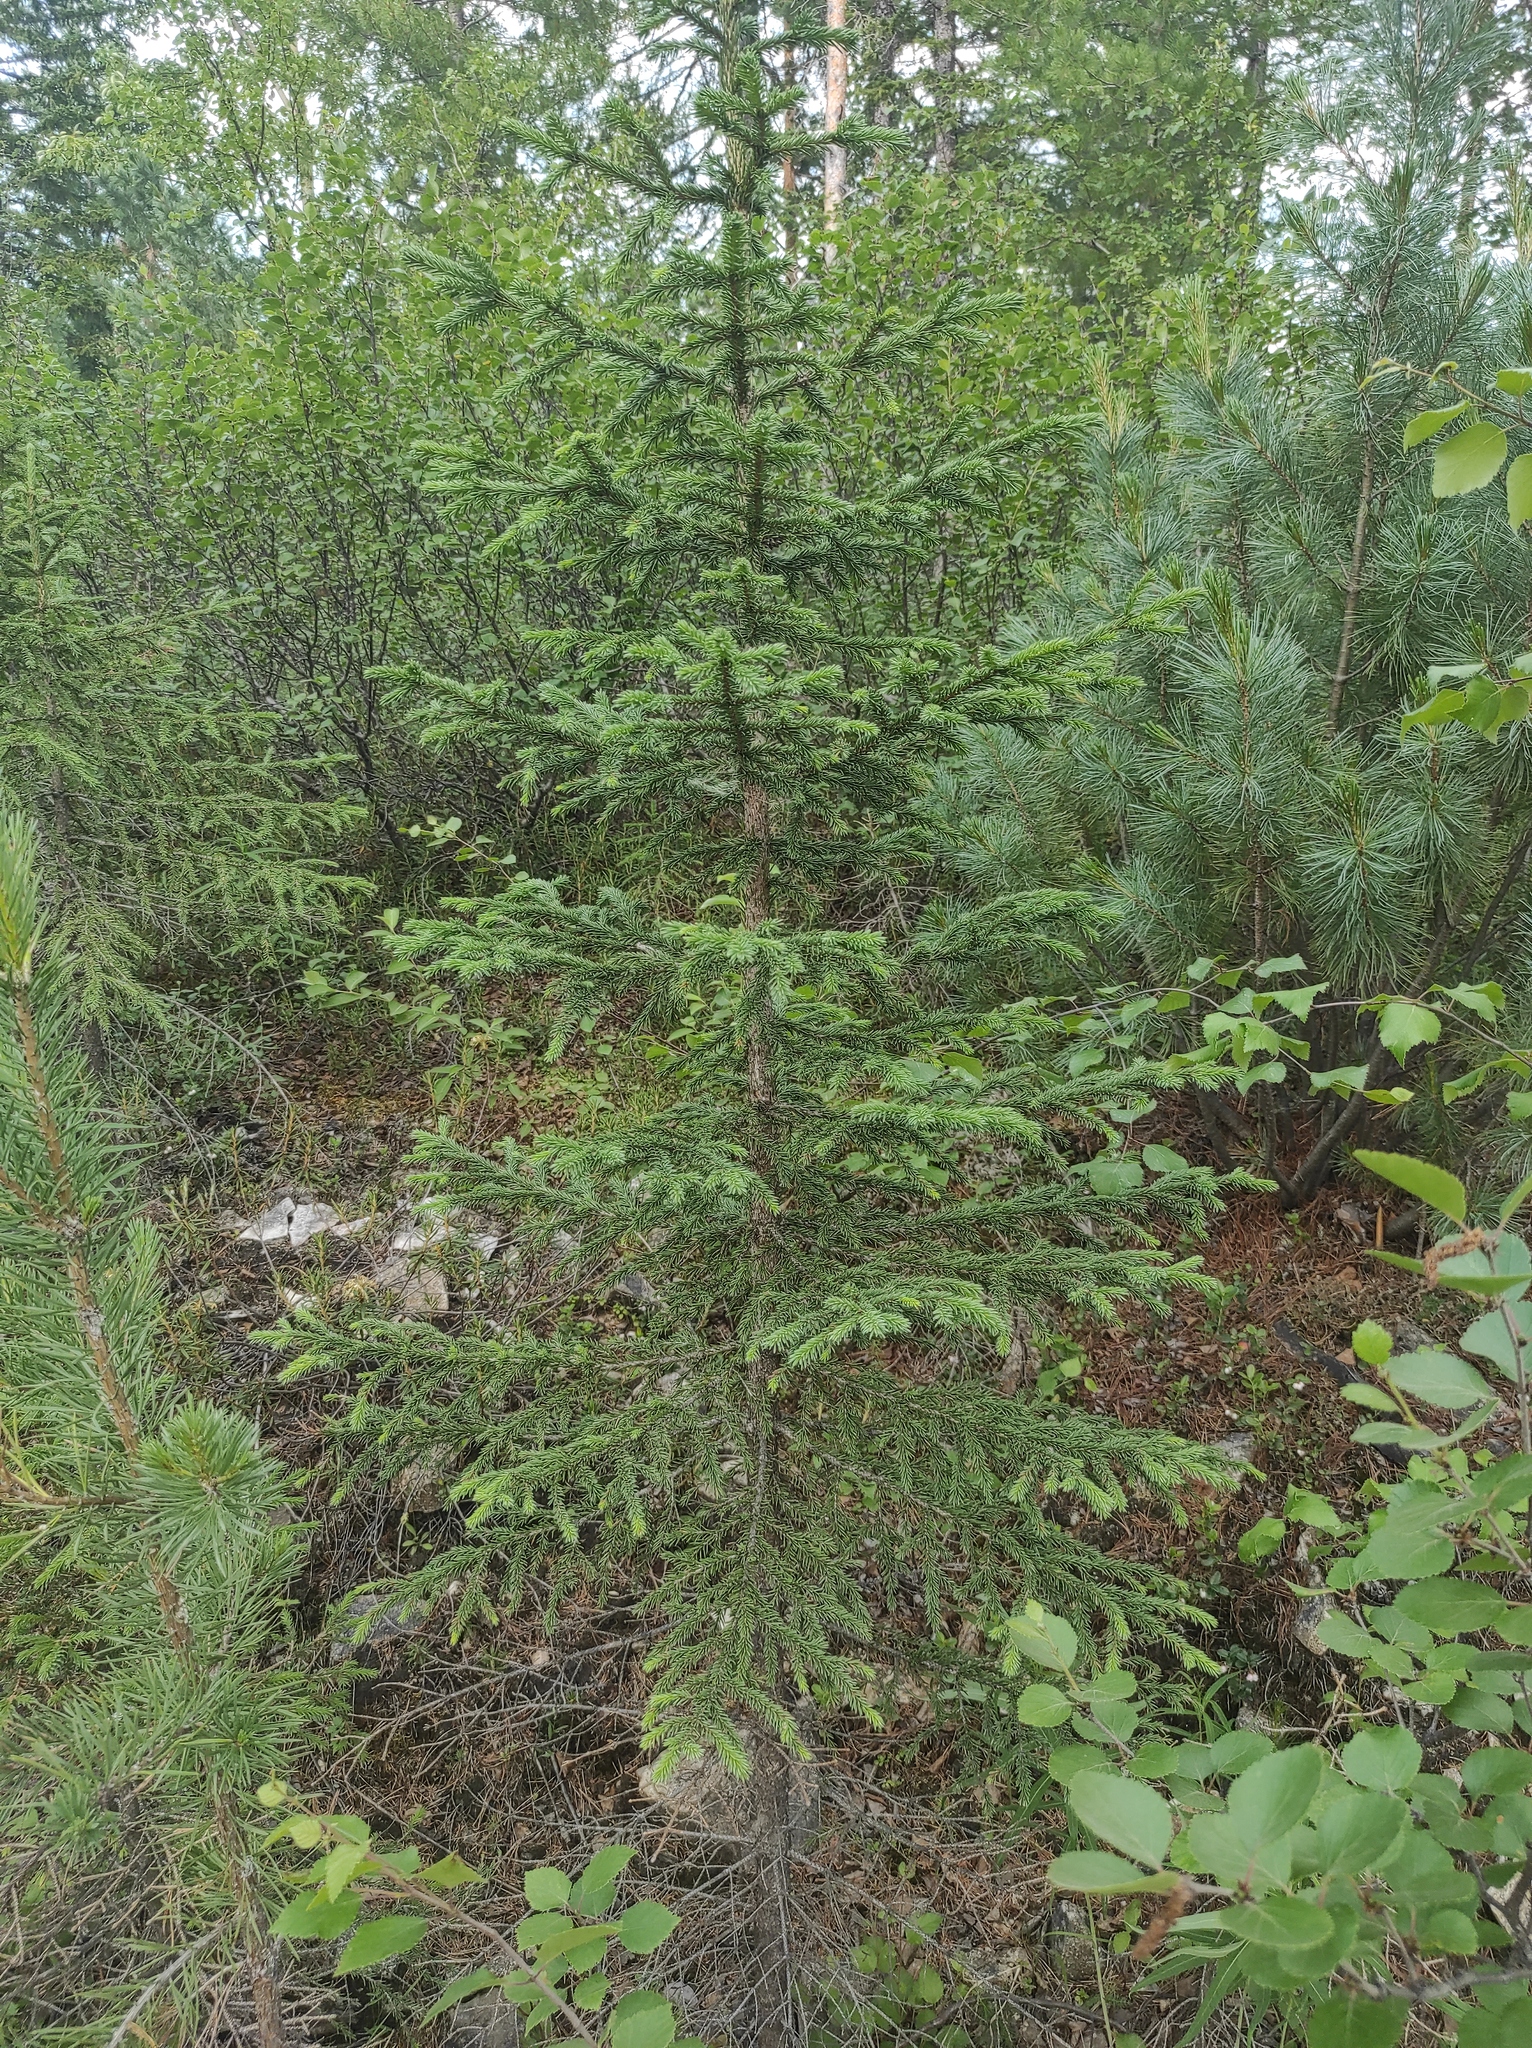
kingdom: Plantae
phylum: Tracheophyta
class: Pinopsida
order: Pinales
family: Pinaceae
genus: Picea
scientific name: Picea obovata
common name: Siberian spruce
